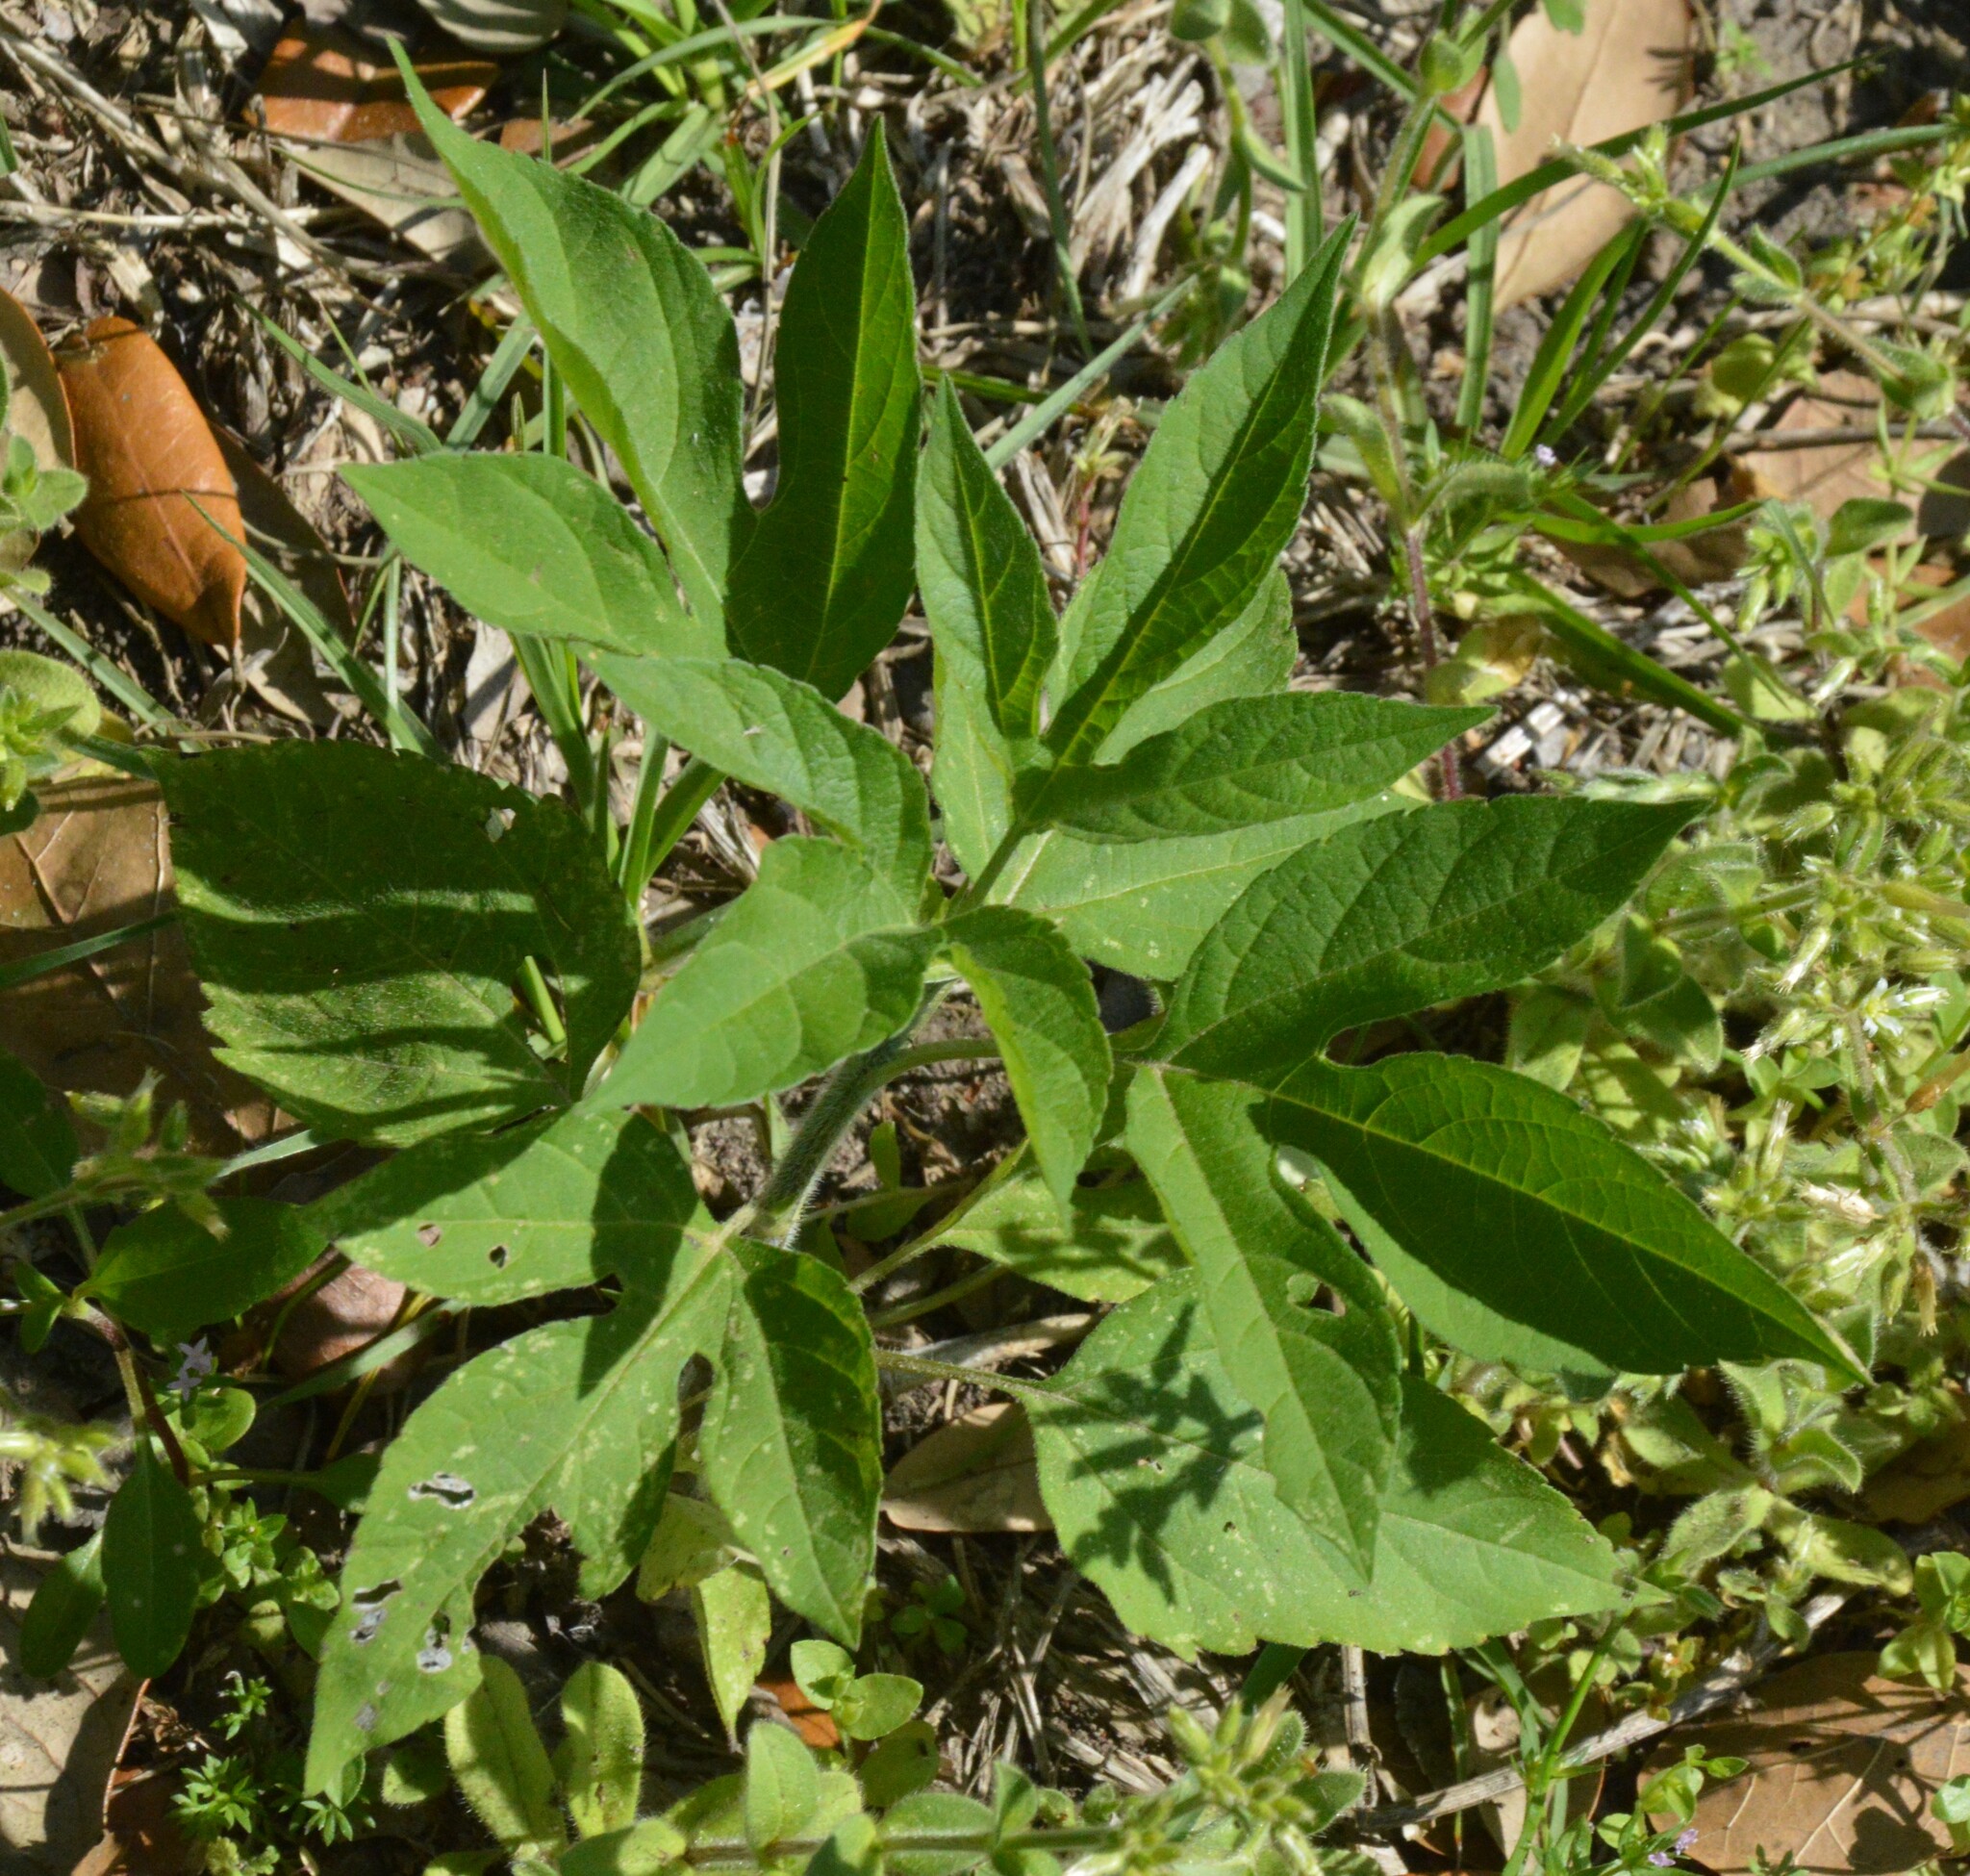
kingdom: Plantae
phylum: Tracheophyta
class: Magnoliopsida
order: Asterales
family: Asteraceae
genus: Ambrosia
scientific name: Ambrosia trifida
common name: Giant ragweed
